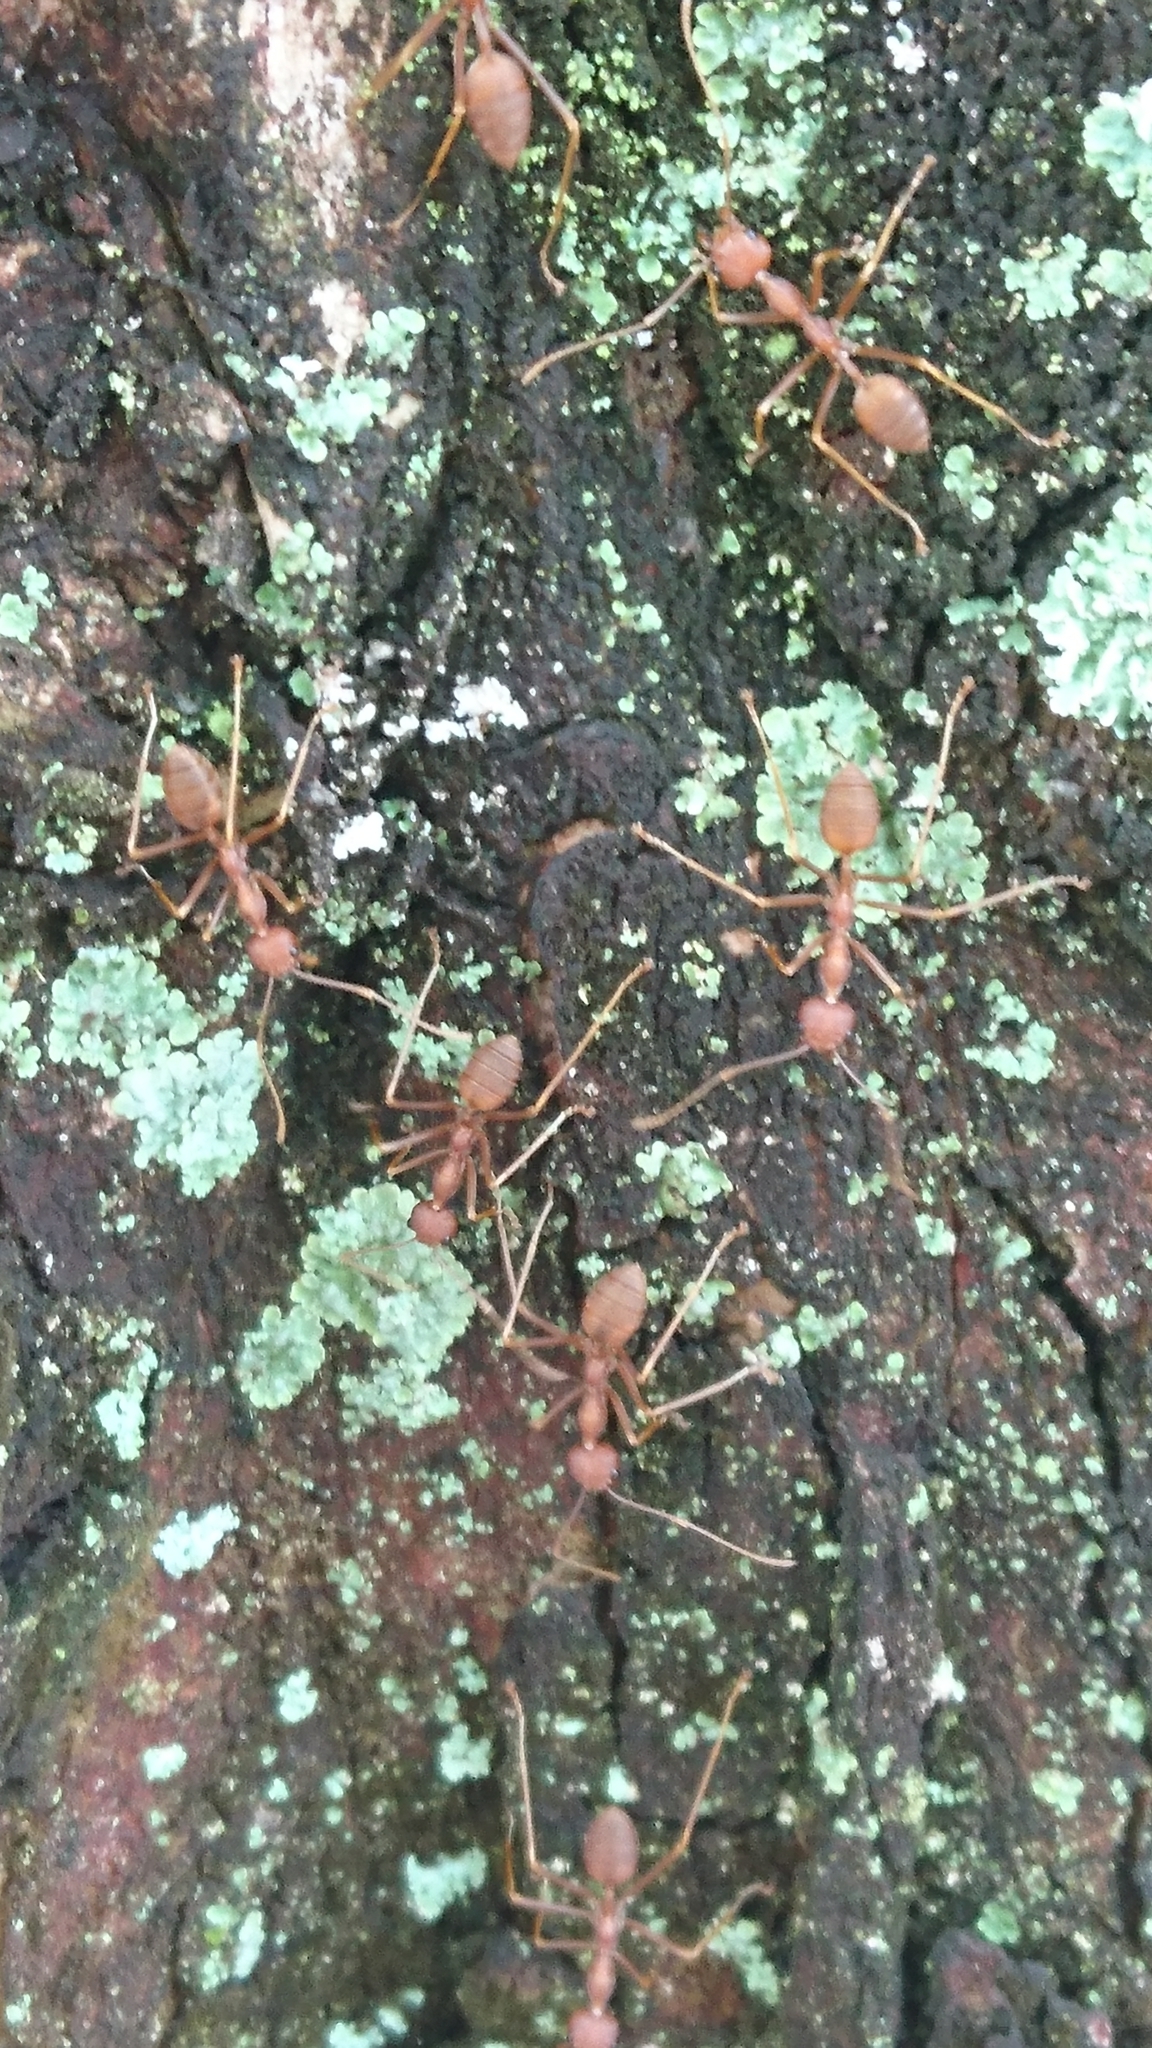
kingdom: Animalia
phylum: Arthropoda
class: Insecta
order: Hymenoptera
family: Formicidae
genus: Oecophylla
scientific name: Oecophylla smaragdina
